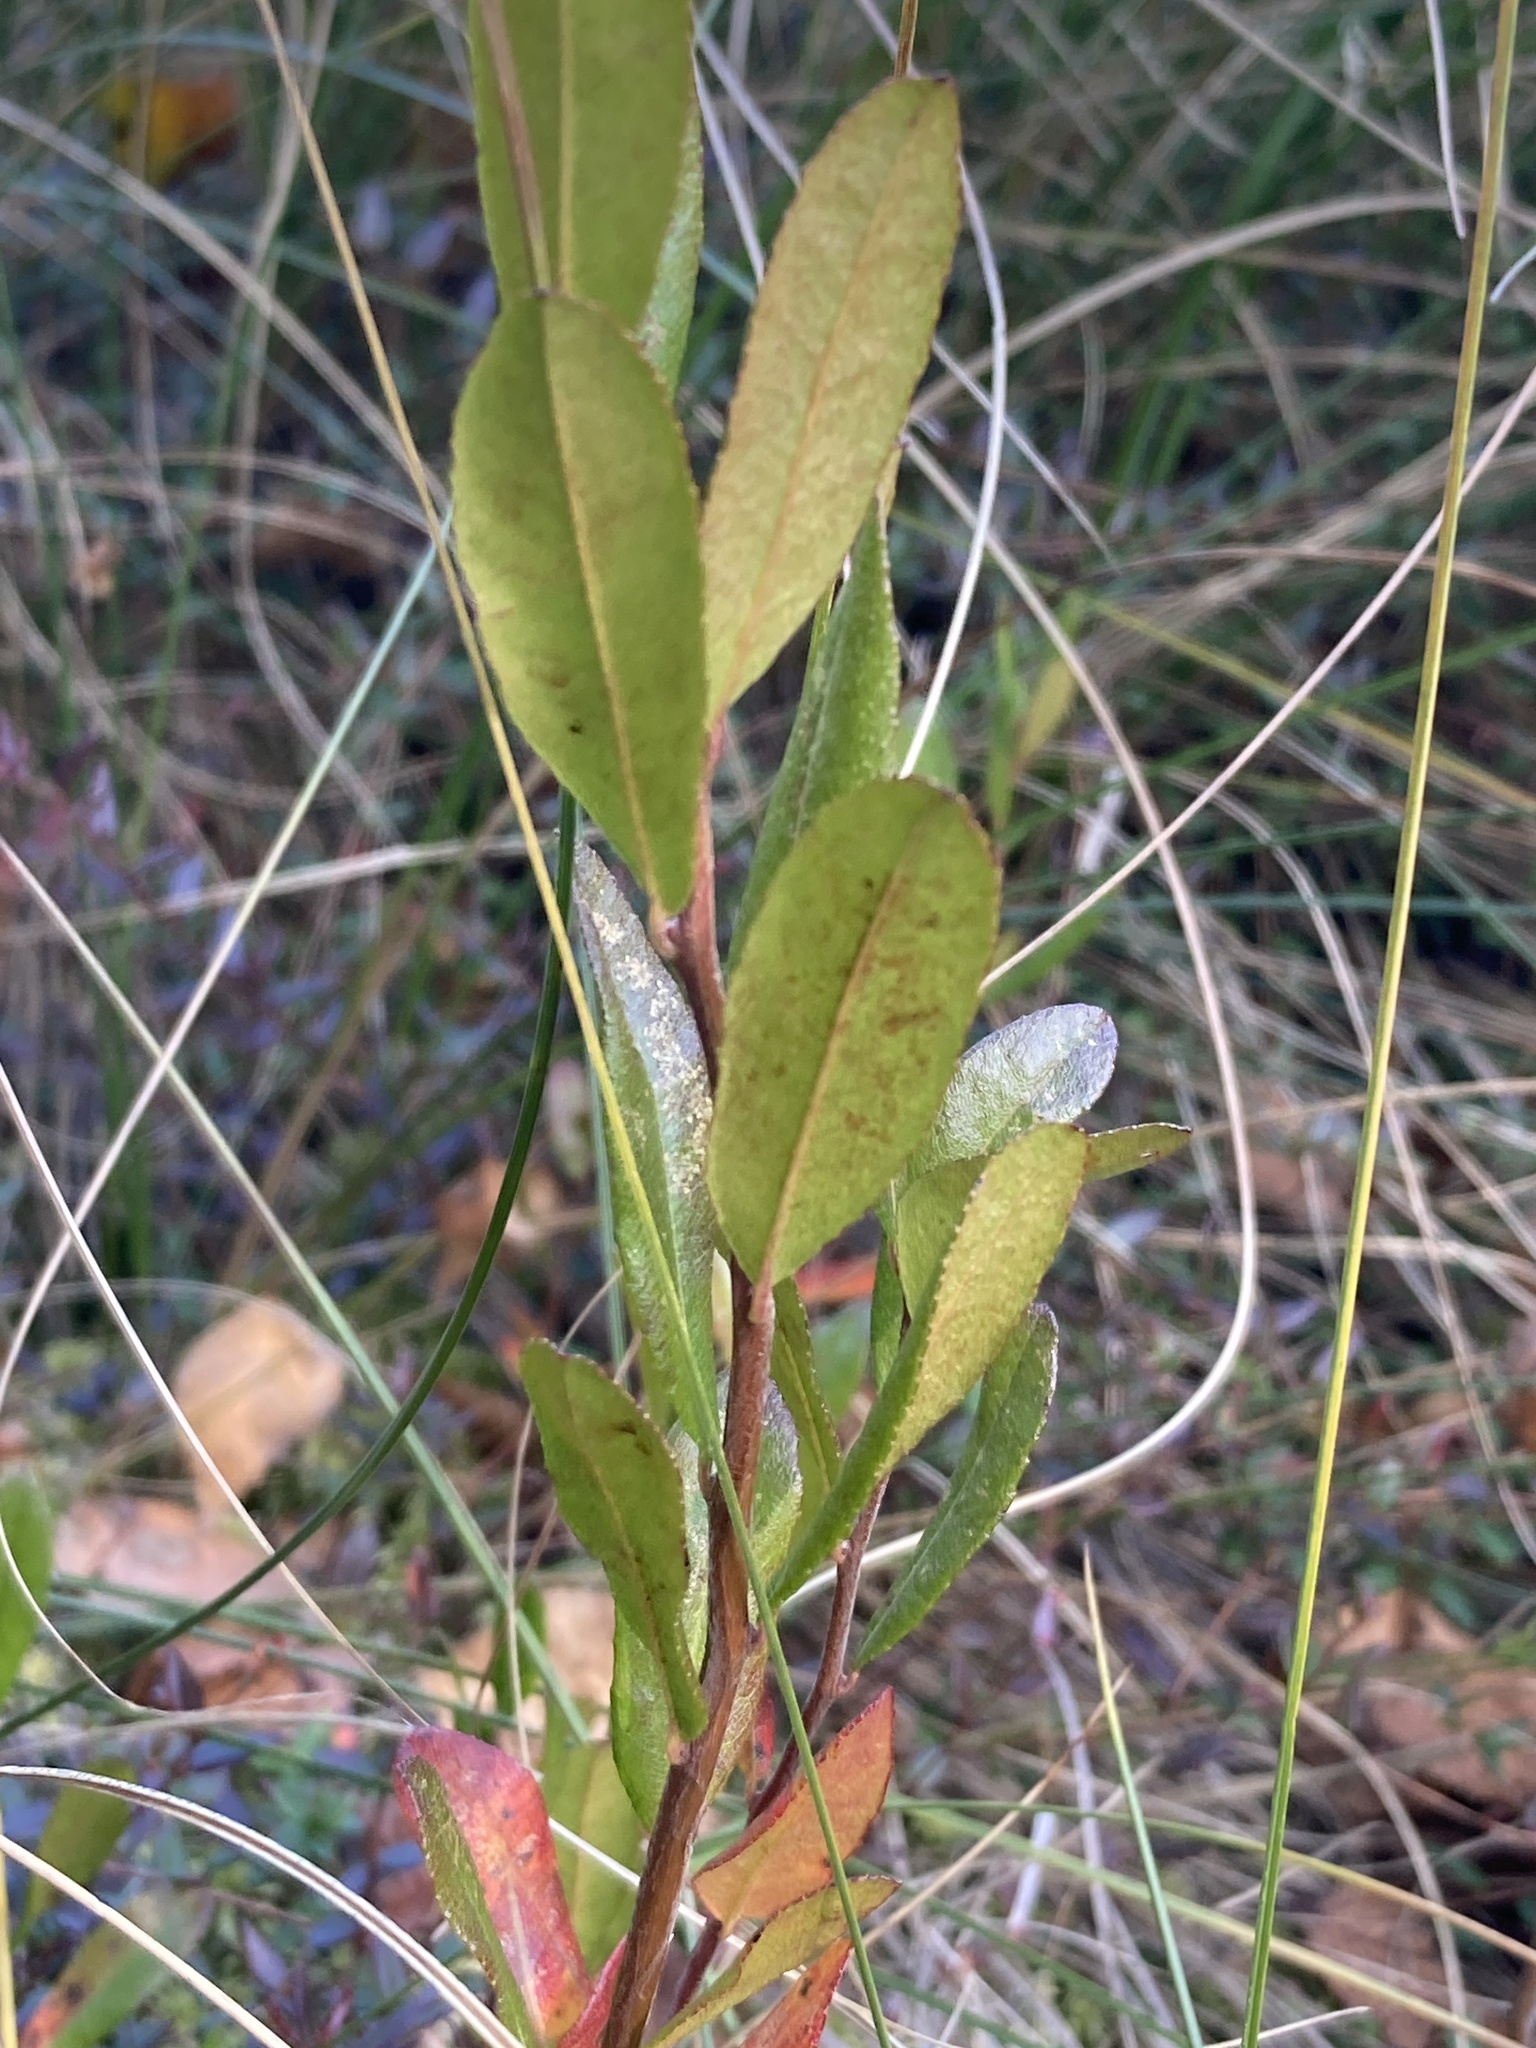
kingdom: Plantae
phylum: Tracheophyta
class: Magnoliopsida
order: Ericales
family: Ericaceae
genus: Chamaedaphne
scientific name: Chamaedaphne calyculata
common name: Leatherleaf
